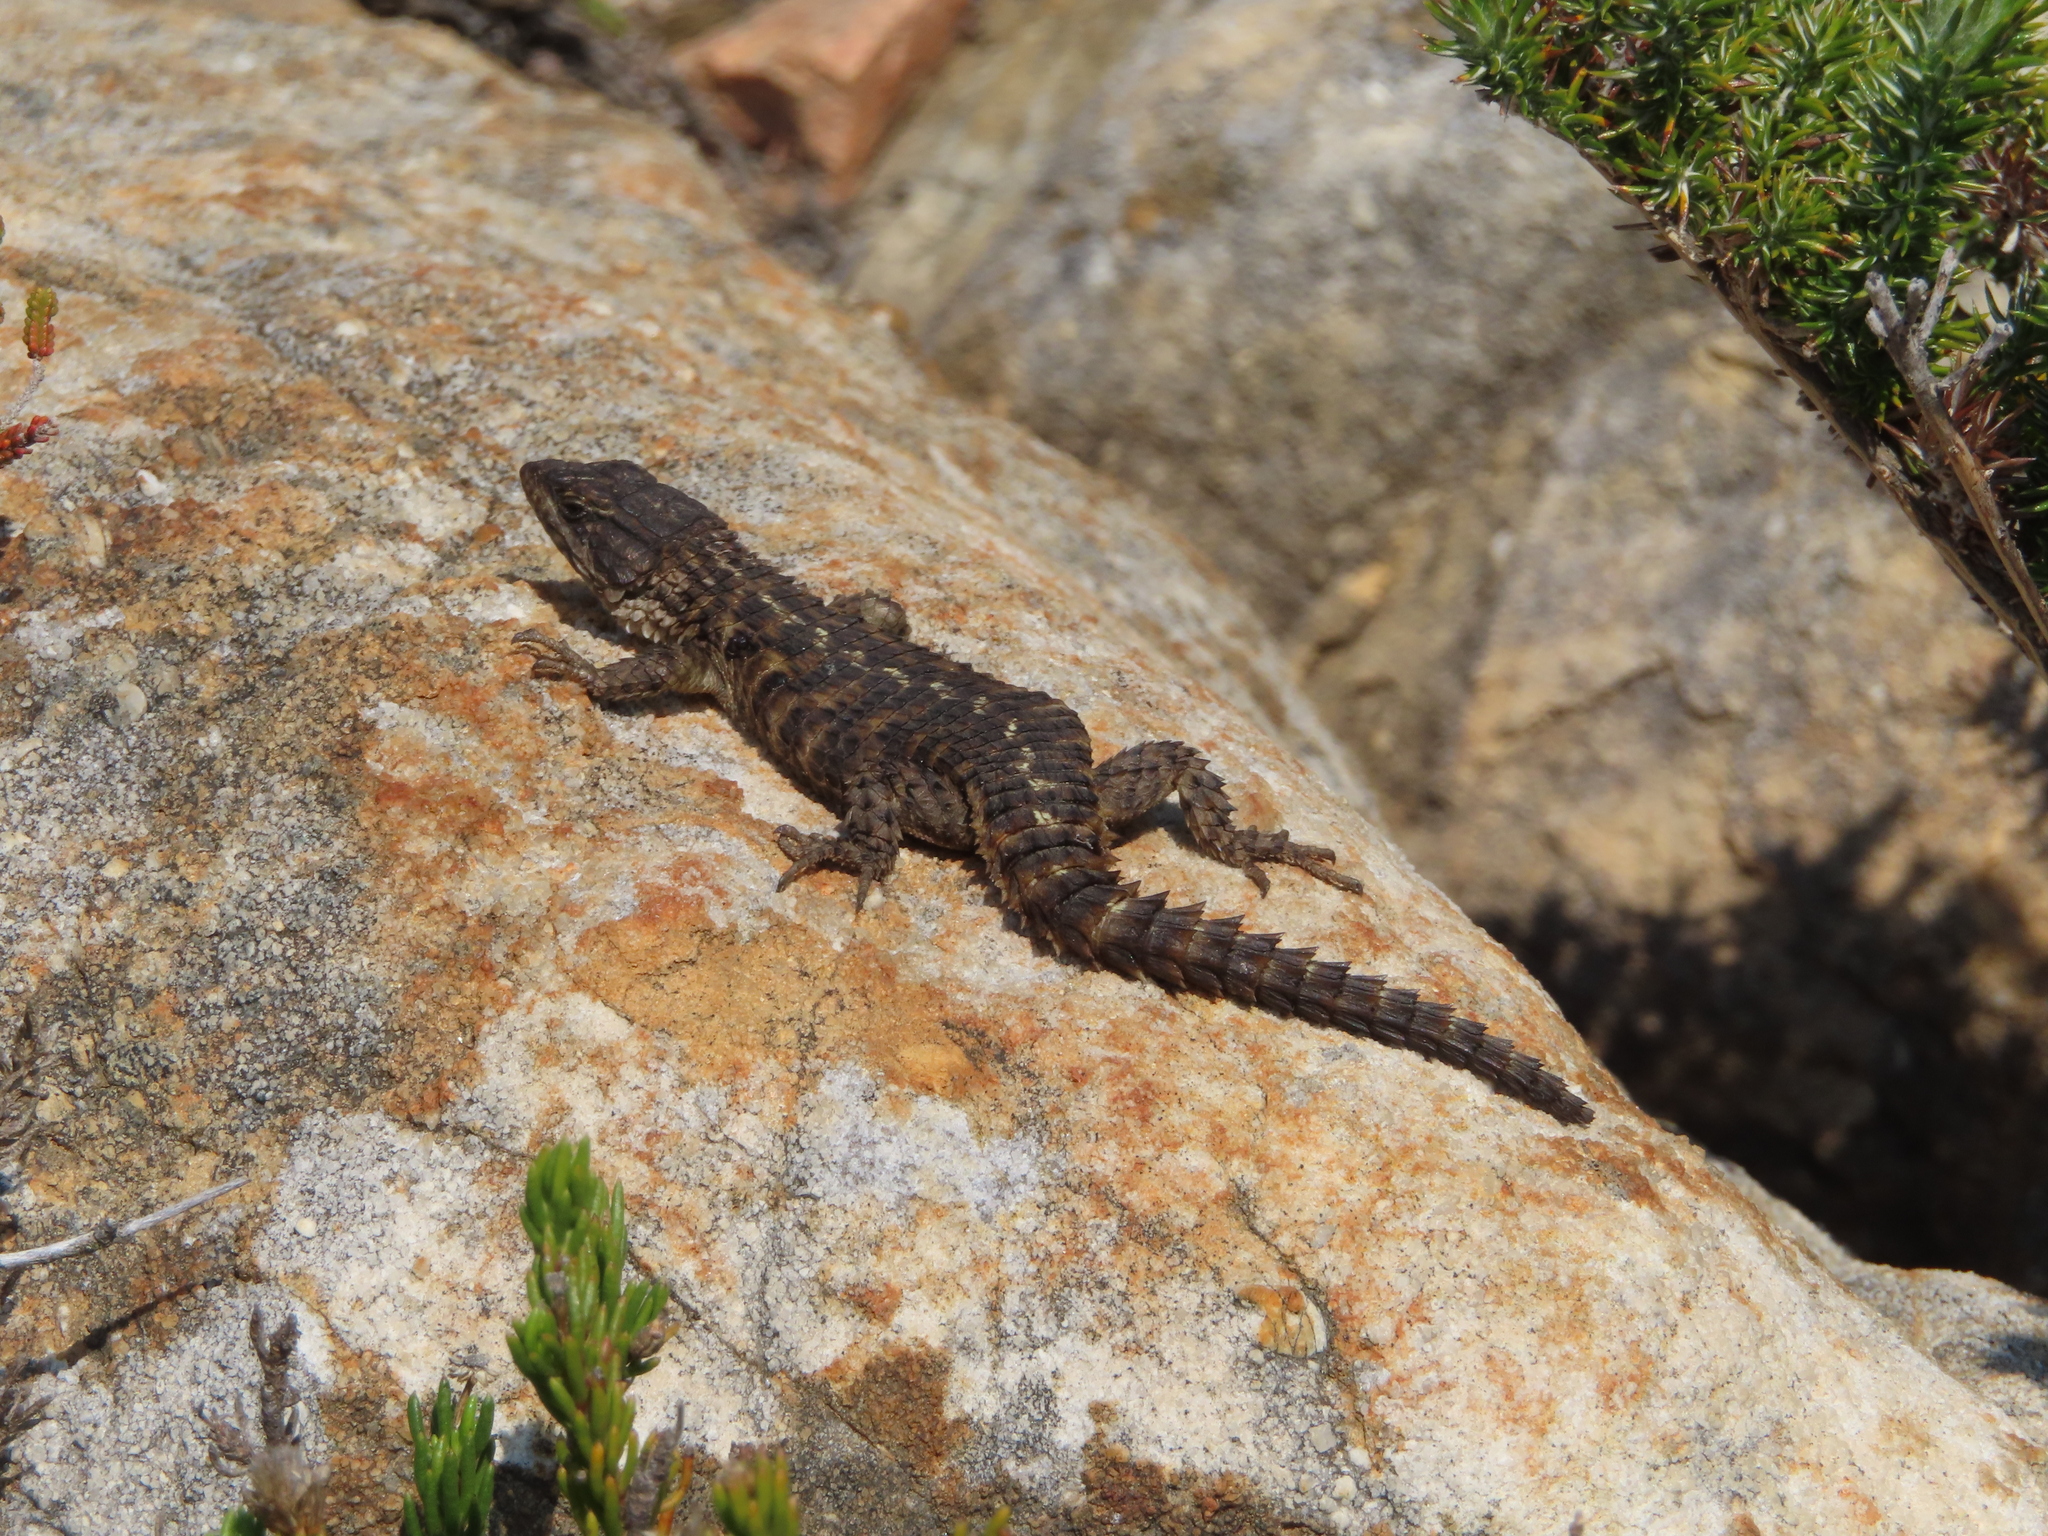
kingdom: Animalia
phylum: Chordata
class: Squamata
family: Cordylidae
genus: Cordylus
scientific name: Cordylus cordylus
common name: Cape girdled lizard
